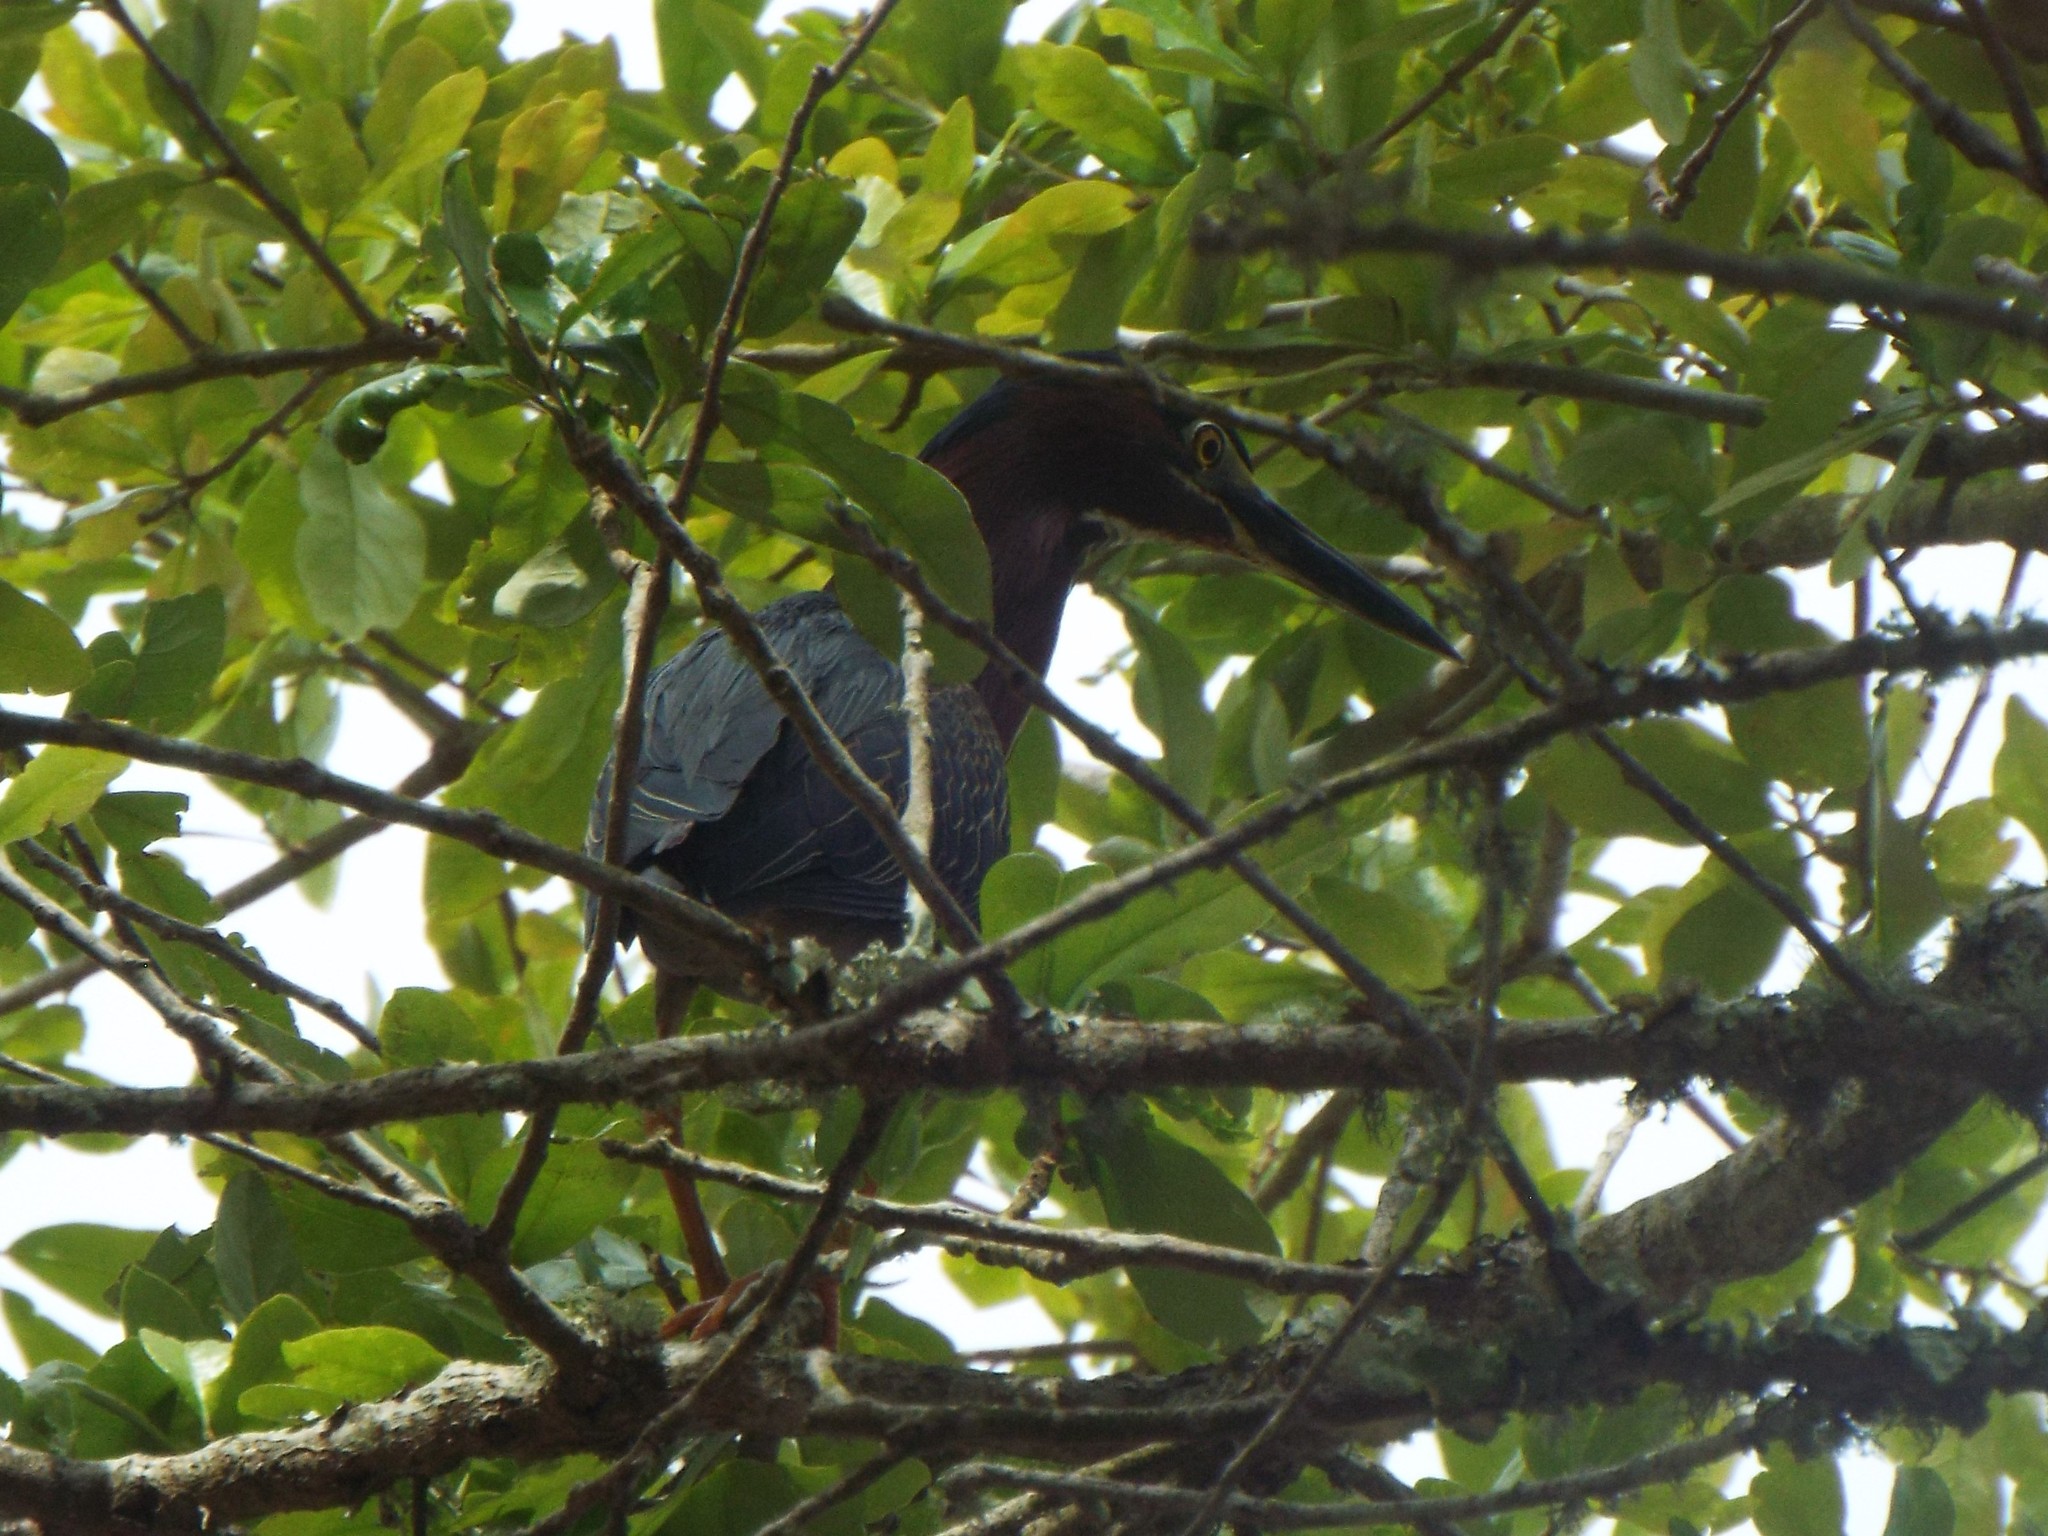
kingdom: Animalia
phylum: Chordata
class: Aves
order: Pelecaniformes
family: Ardeidae
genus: Butorides
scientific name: Butorides virescens
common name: Green heron
